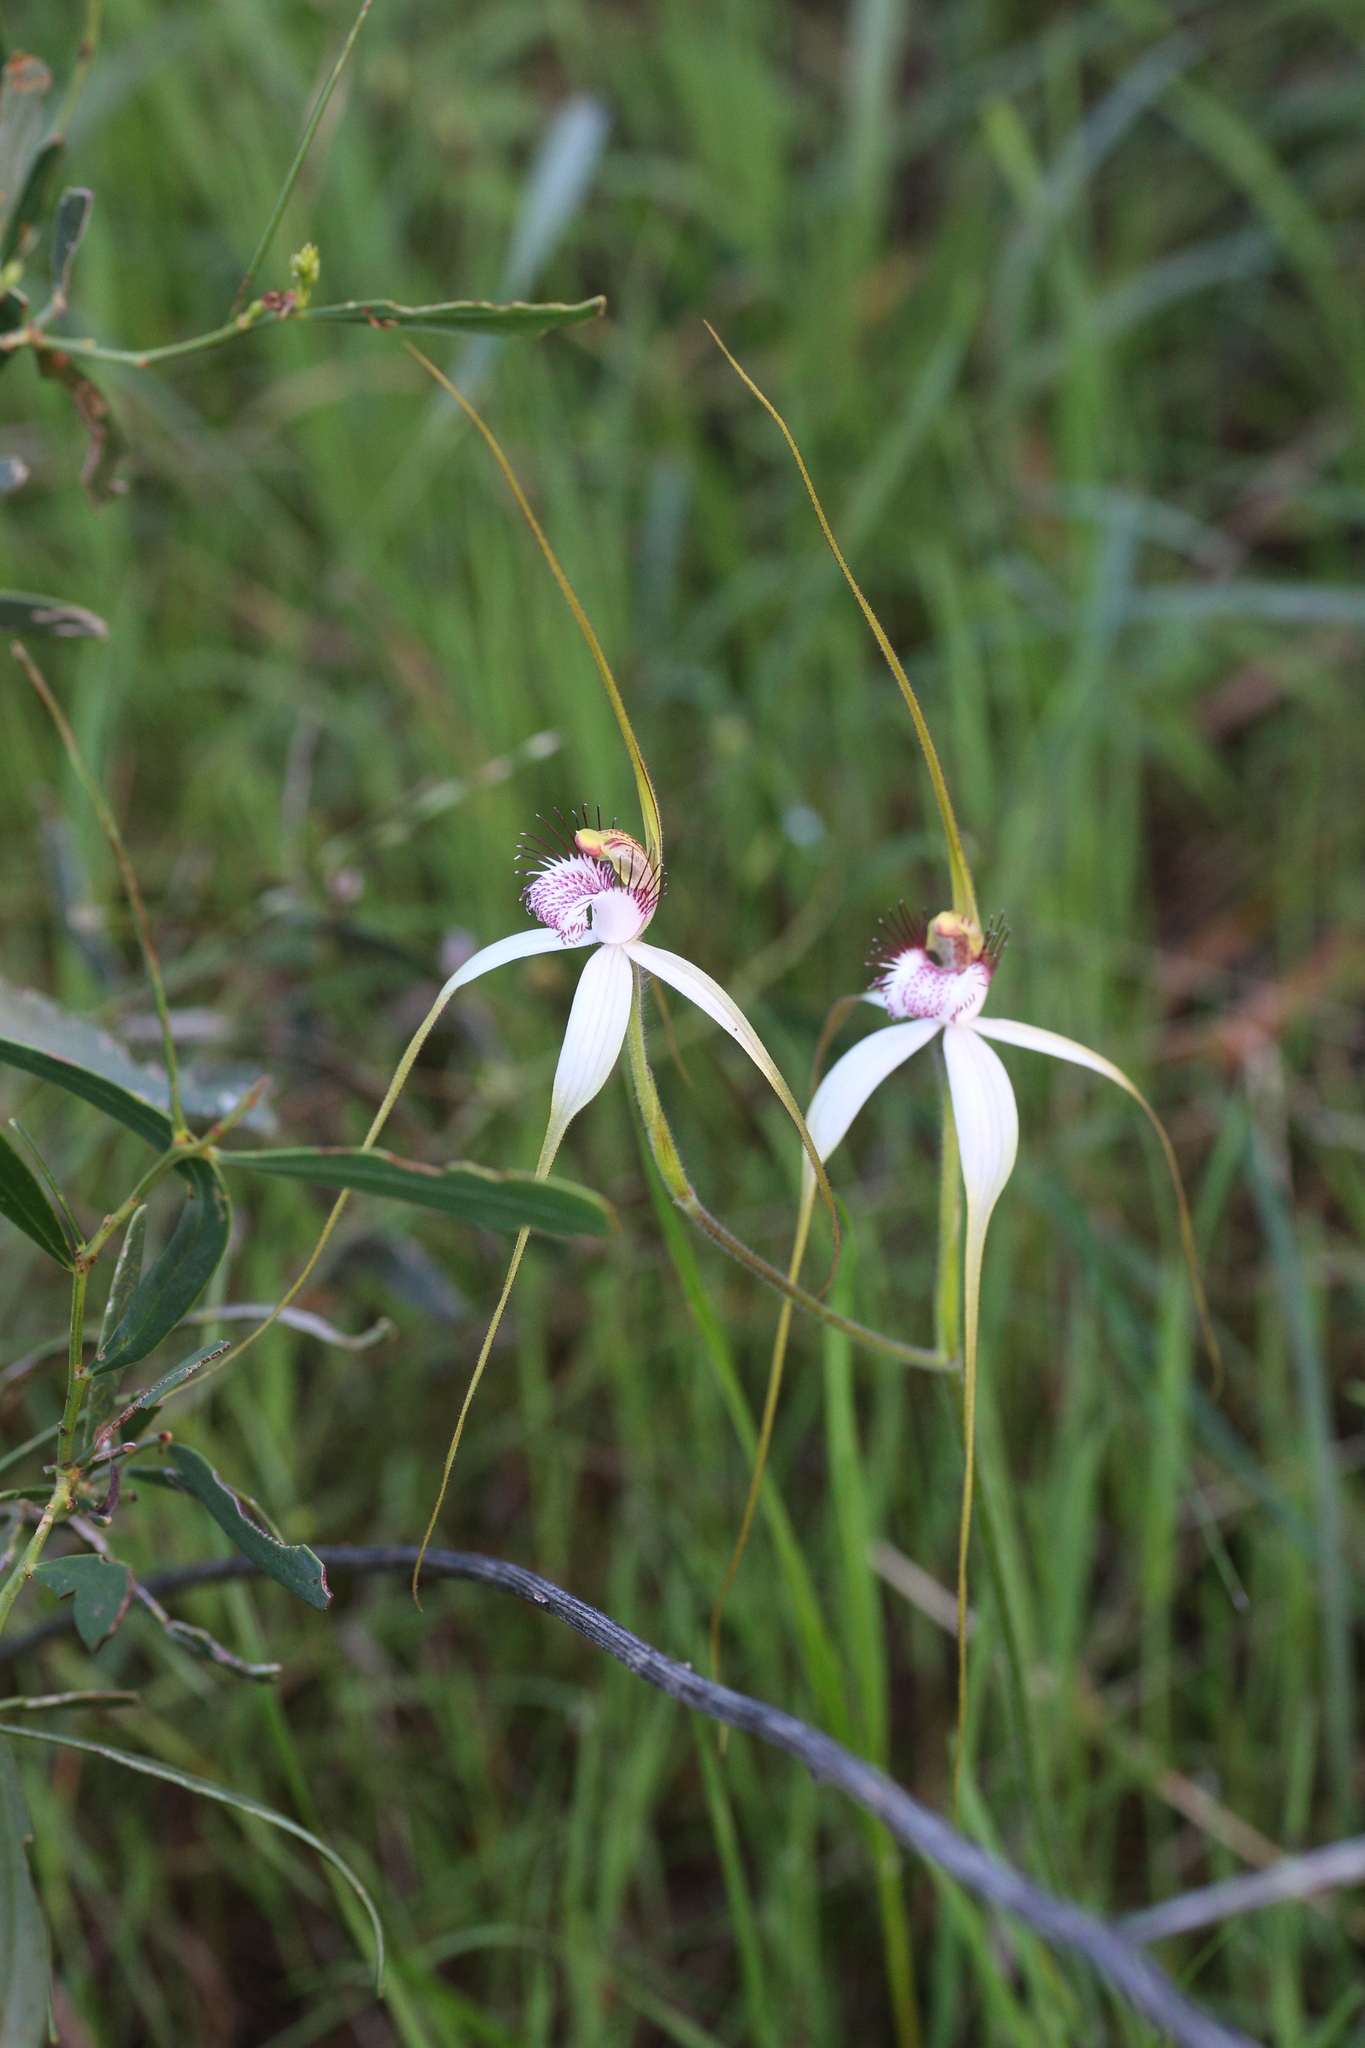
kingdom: Plantae
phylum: Tracheophyta
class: Liliopsida
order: Asparagales
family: Orchidaceae
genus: Caladenia
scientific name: Caladenia longicauda
